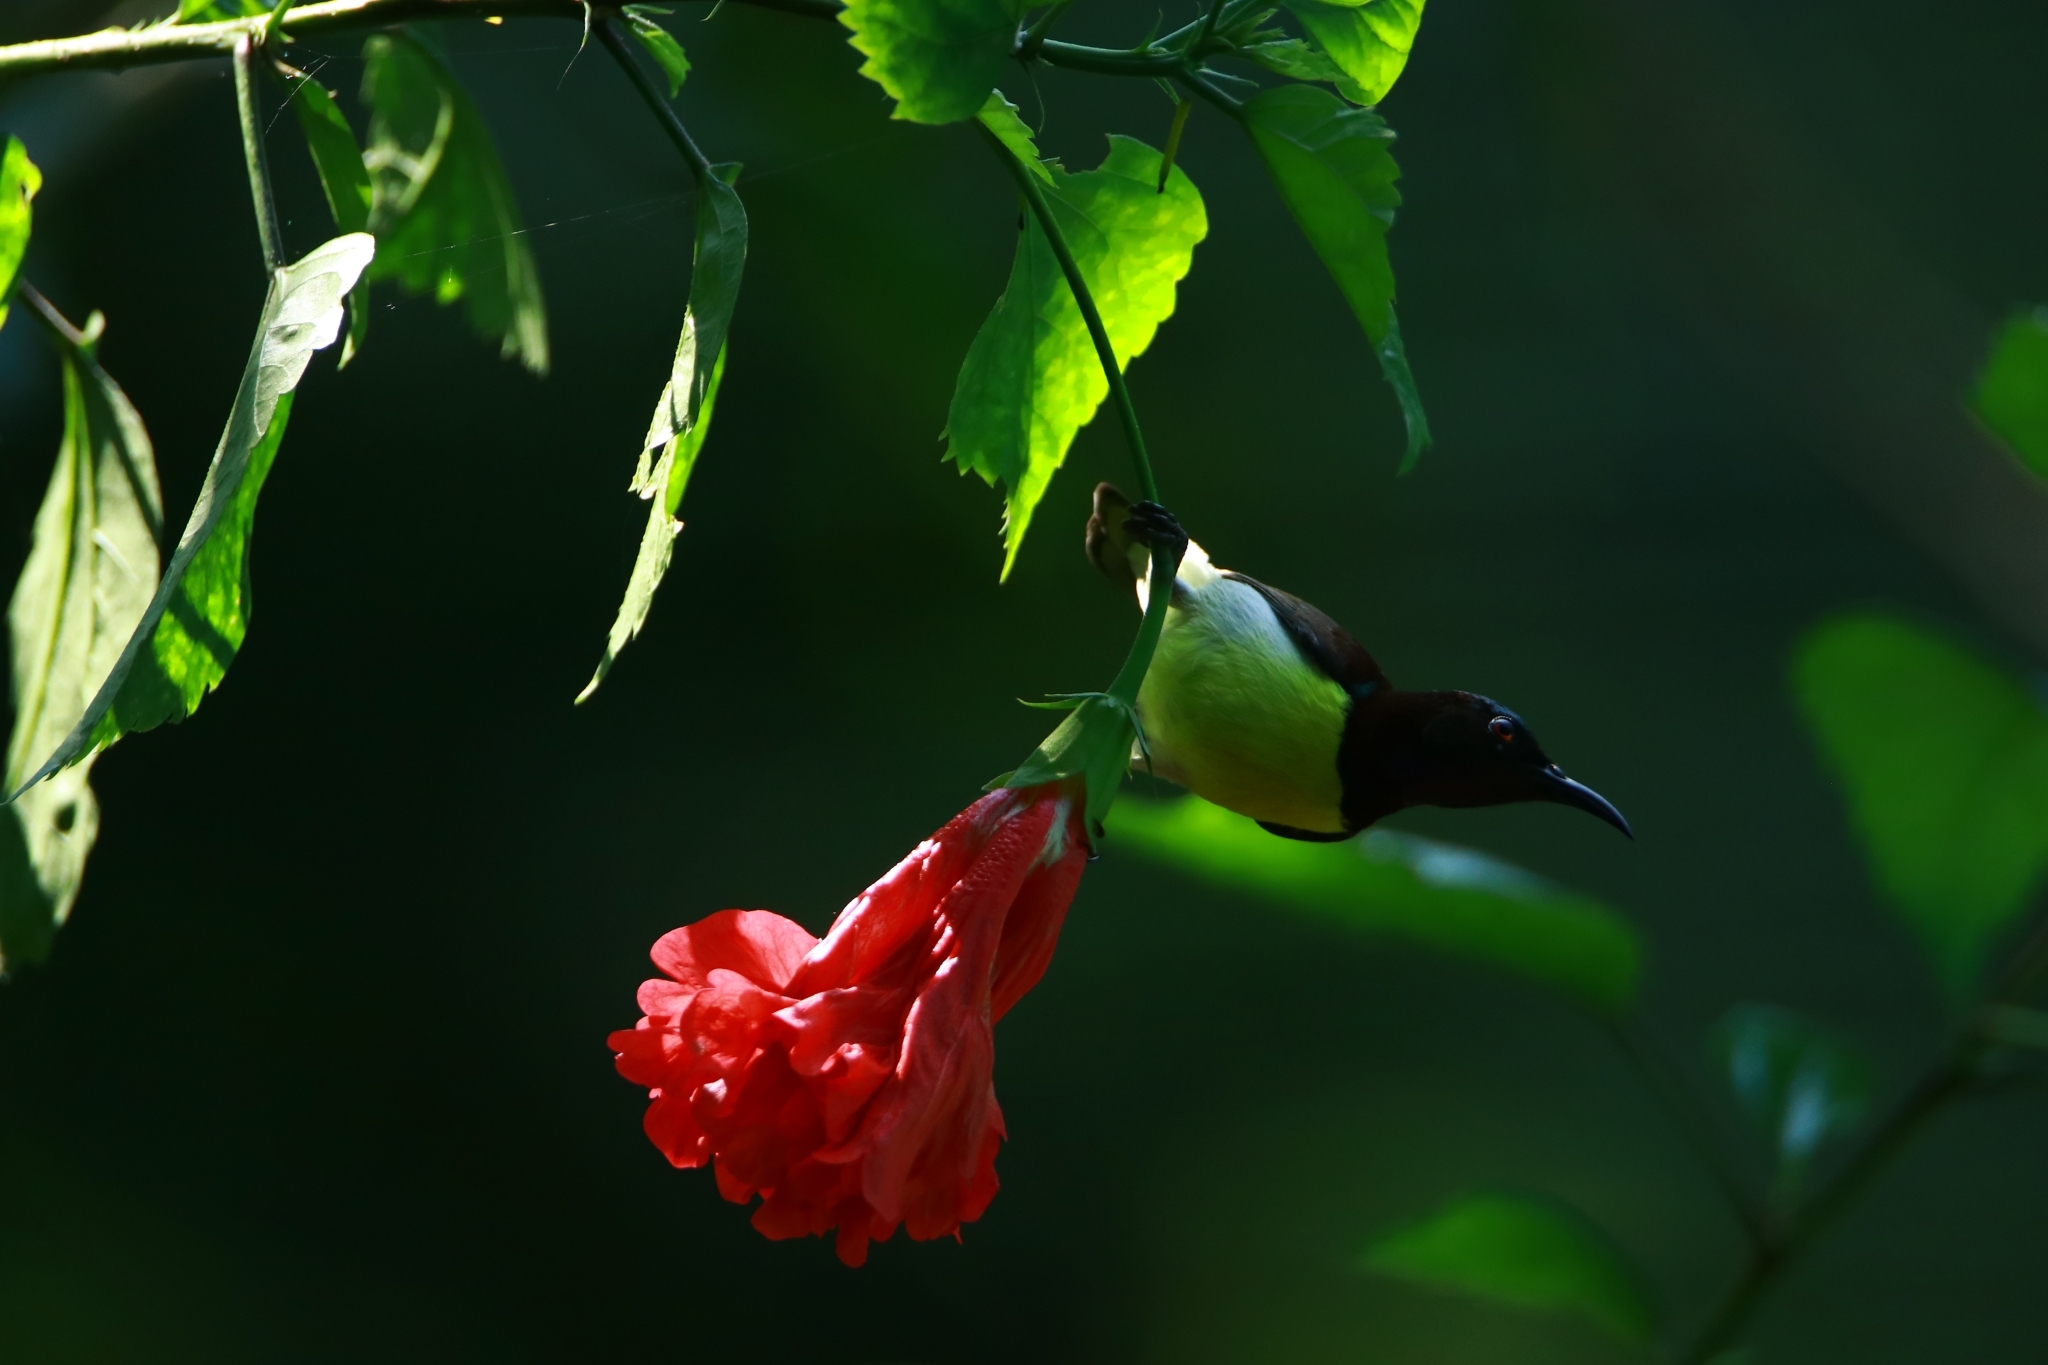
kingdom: Animalia
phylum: Chordata
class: Aves
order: Passeriformes
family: Nectariniidae
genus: Leptocoma
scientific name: Leptocoma zeylonica
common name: Purple-rumped sunbird
